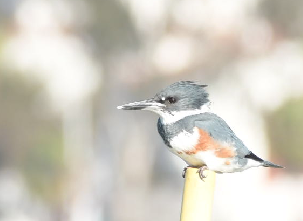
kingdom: Animalia
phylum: Chordata
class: Aves
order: Coraciiformes
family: Alcedinidae
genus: Megaceryle
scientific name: Megaceryle alcyon
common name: Belted kingfisher
